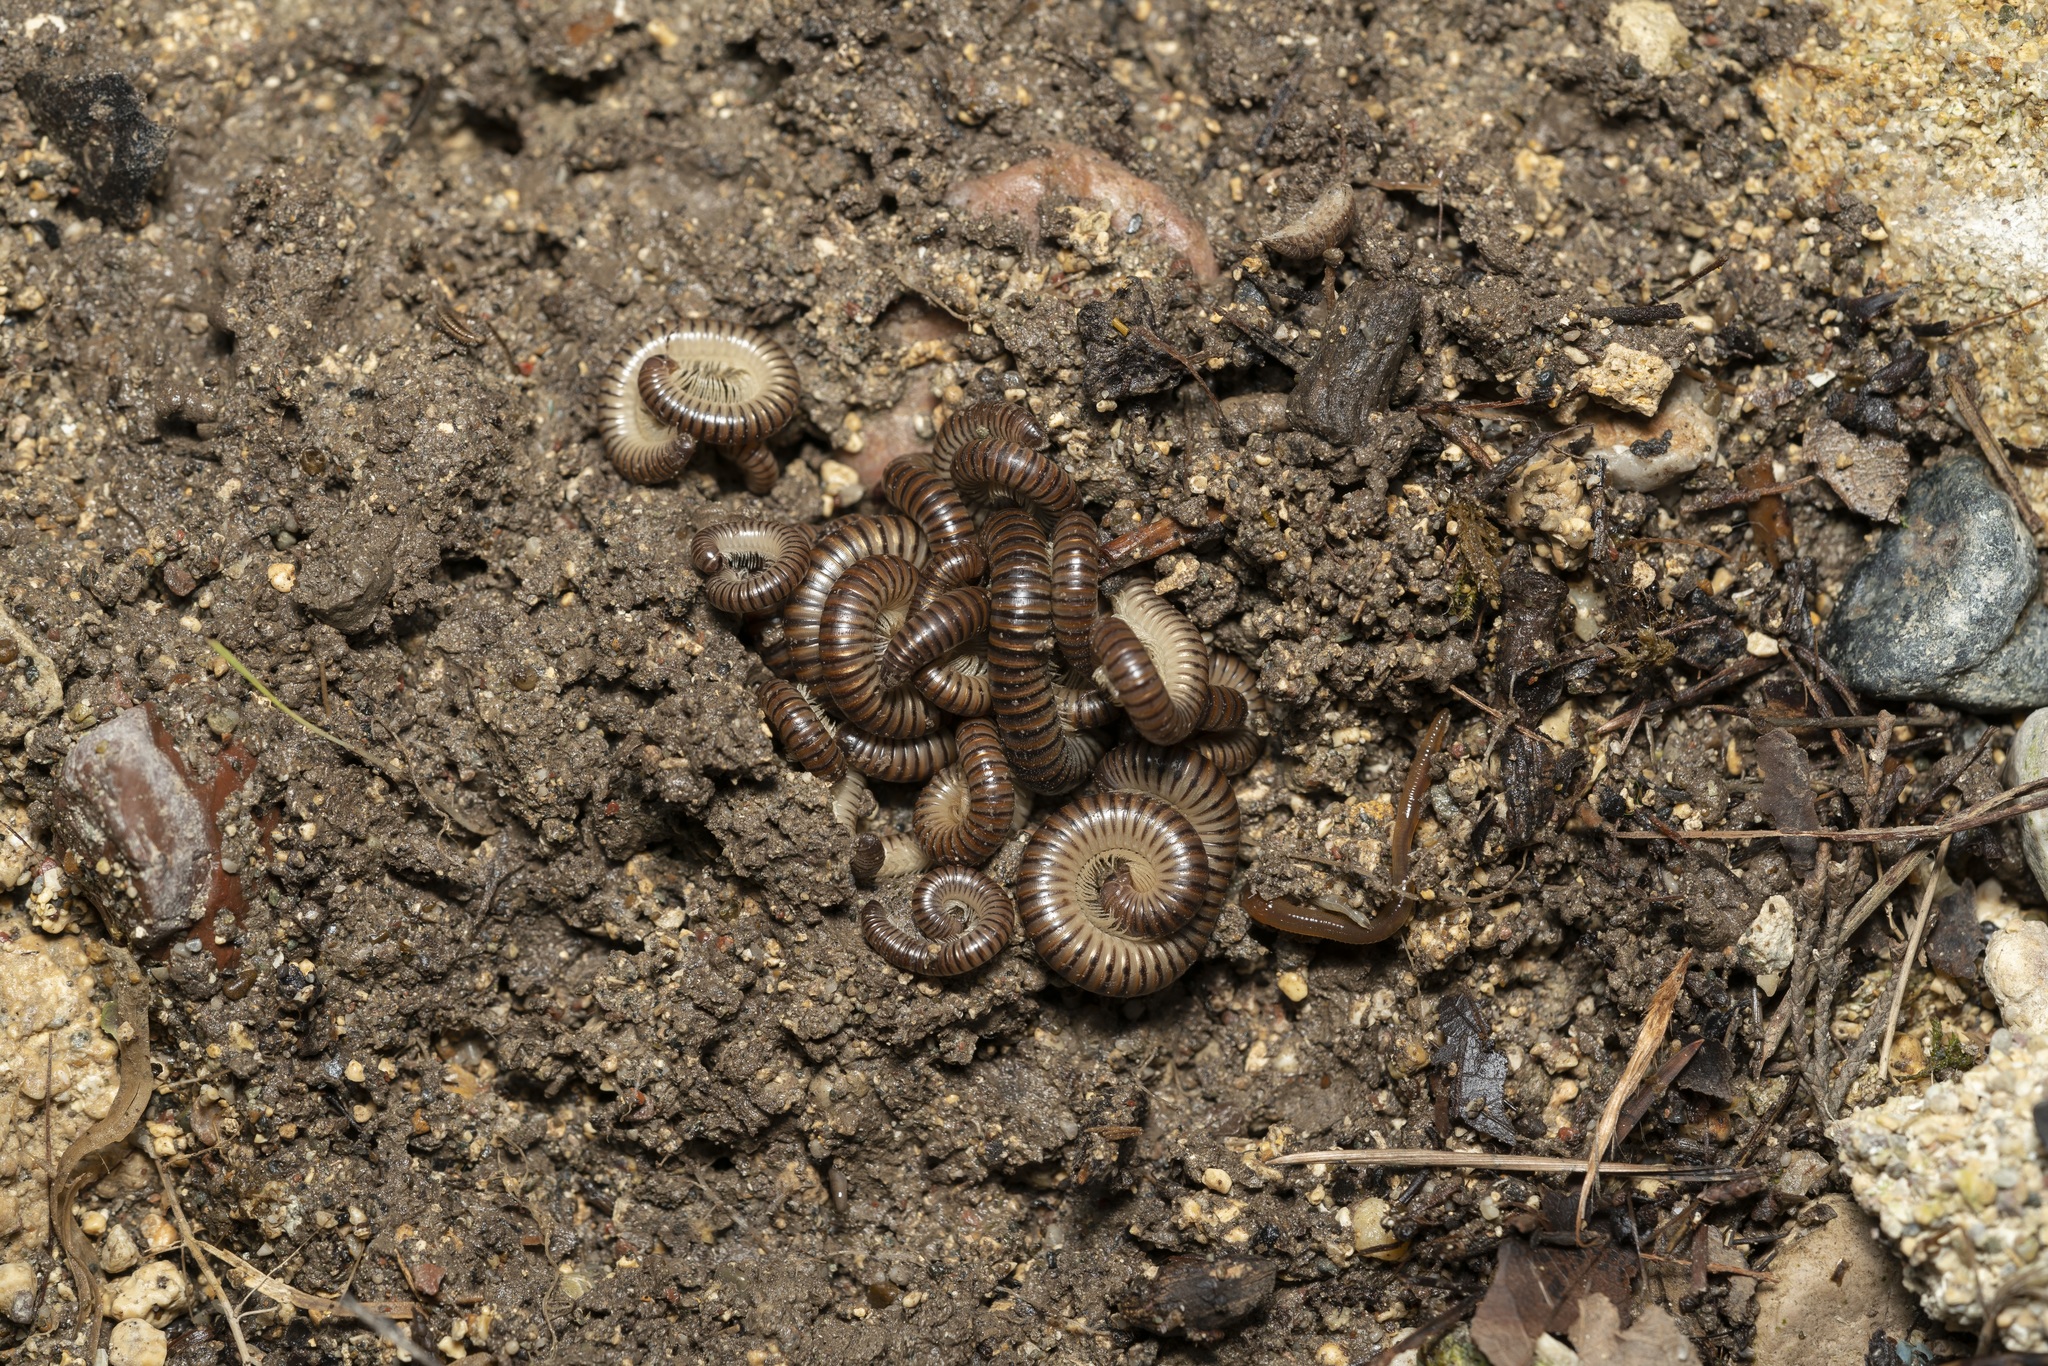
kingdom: Animalia
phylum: Arthropoda
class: Diplopoda
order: Julida
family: Julidae
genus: Pachyiulus
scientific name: Pachyiulus asiaeminoris
